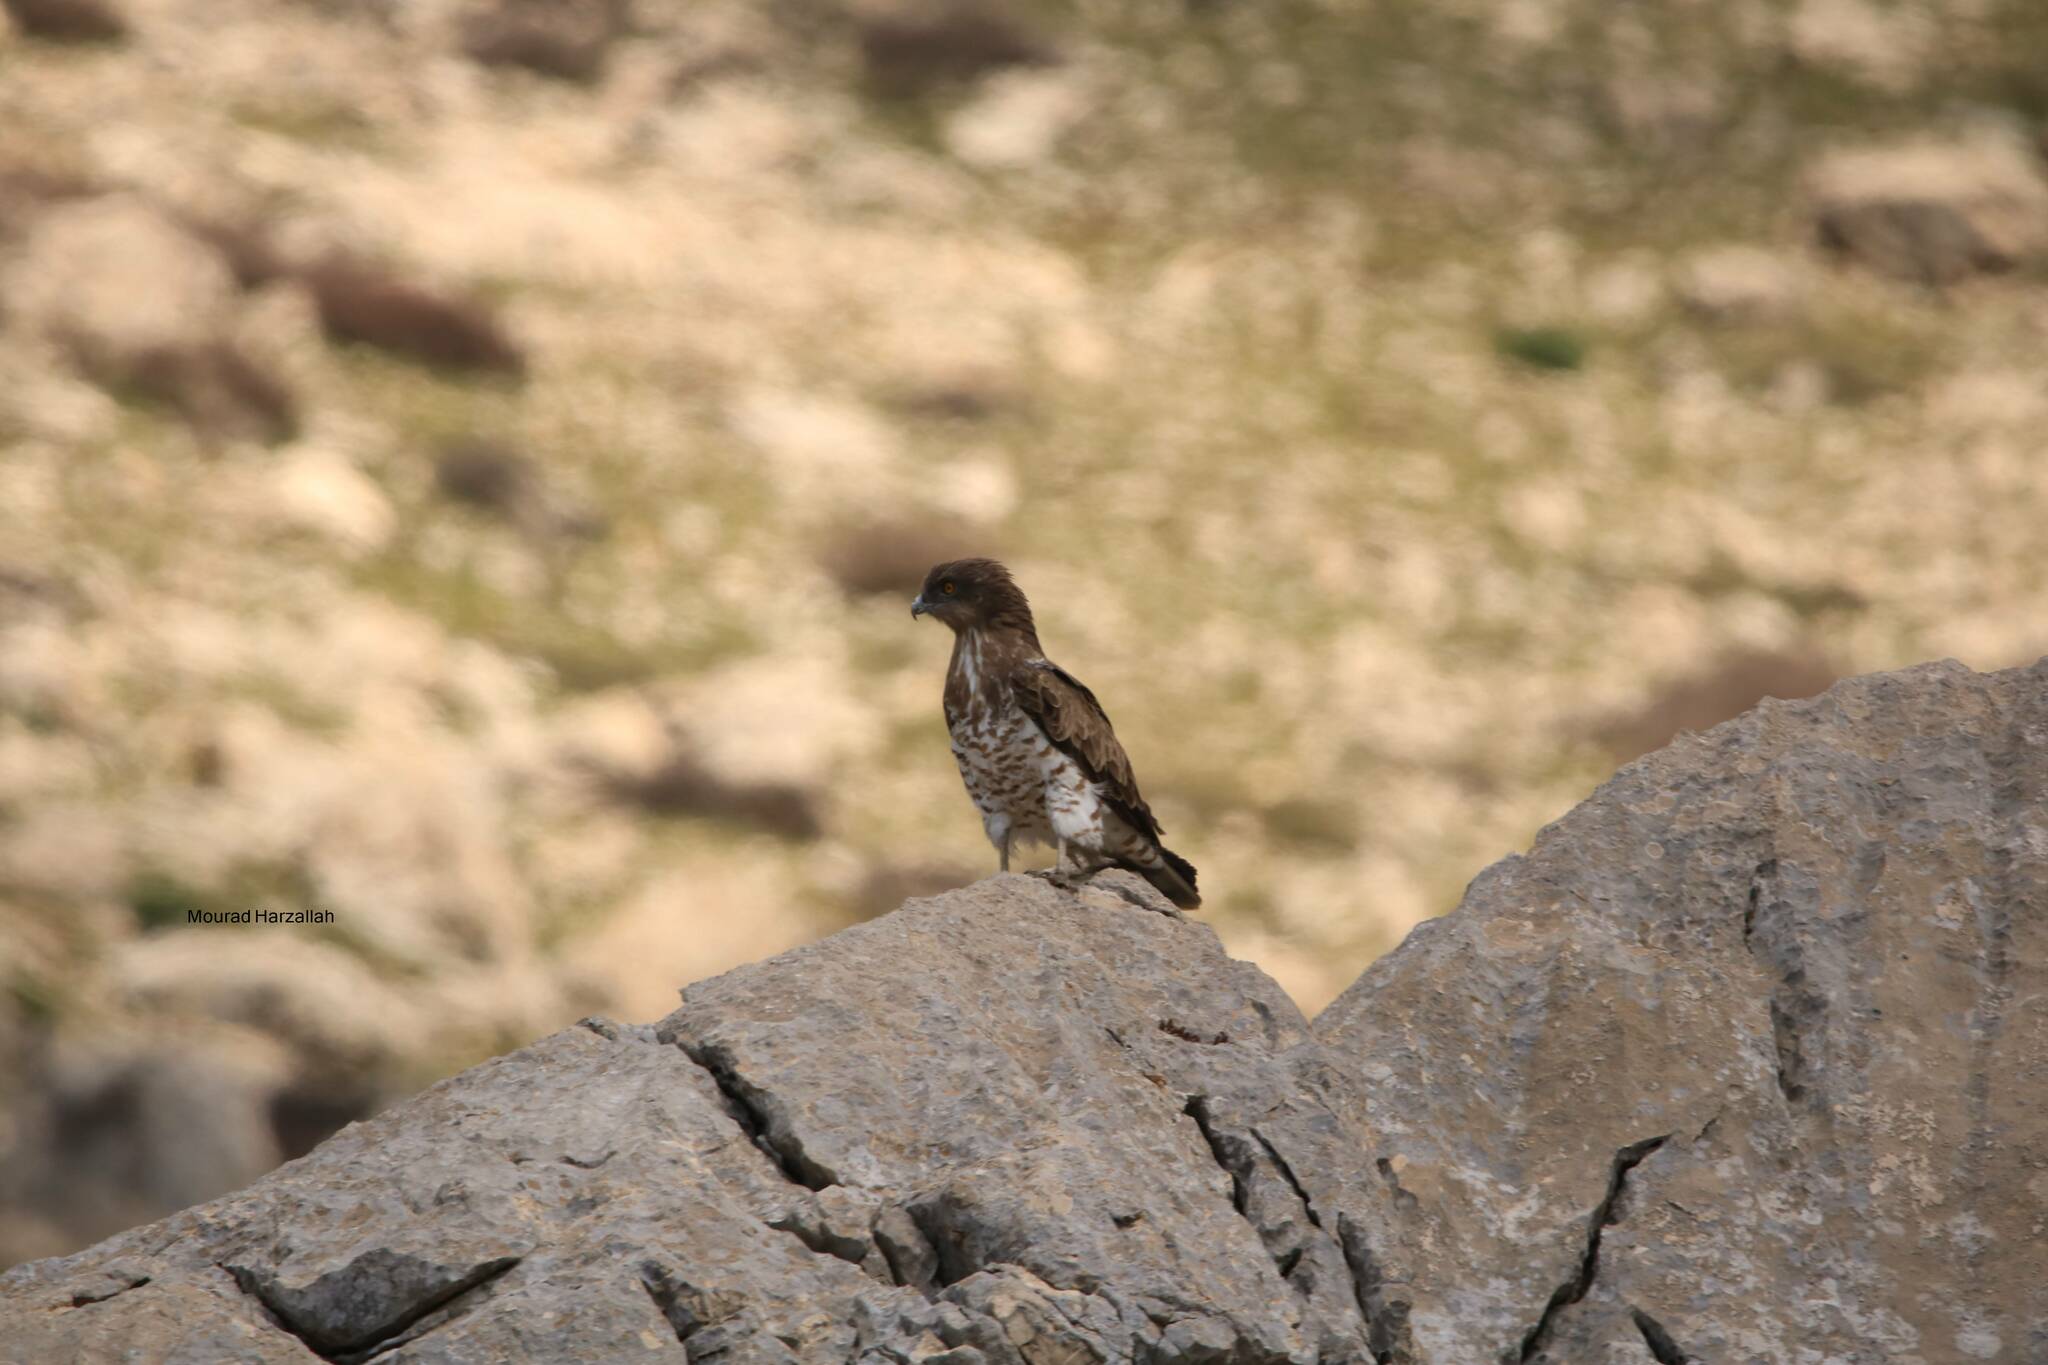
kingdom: Animalia
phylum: Chordata
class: Aves
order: Accipitriformes
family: Accipitridae
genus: Circaetus
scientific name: Circaetus gallicus
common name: Short-toed snake eagle
